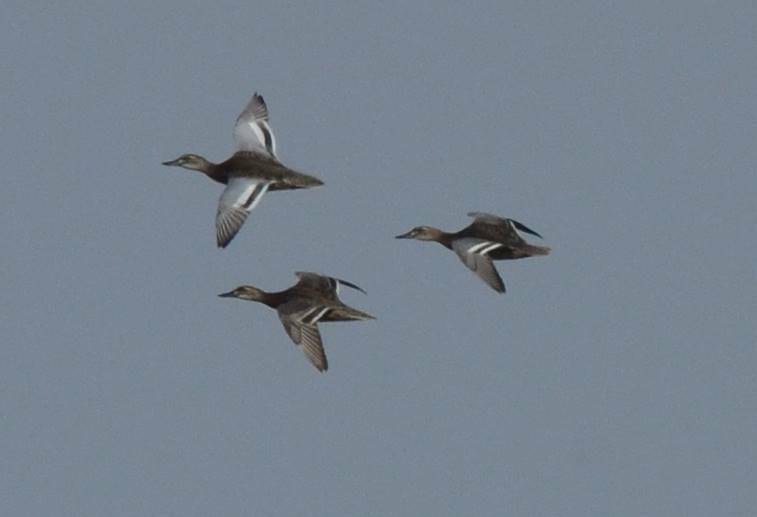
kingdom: Animalia
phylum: Chordata
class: Aves
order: Anseriformes
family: Anatidae
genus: Spatula
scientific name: Spatula querquedula
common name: Garganey
